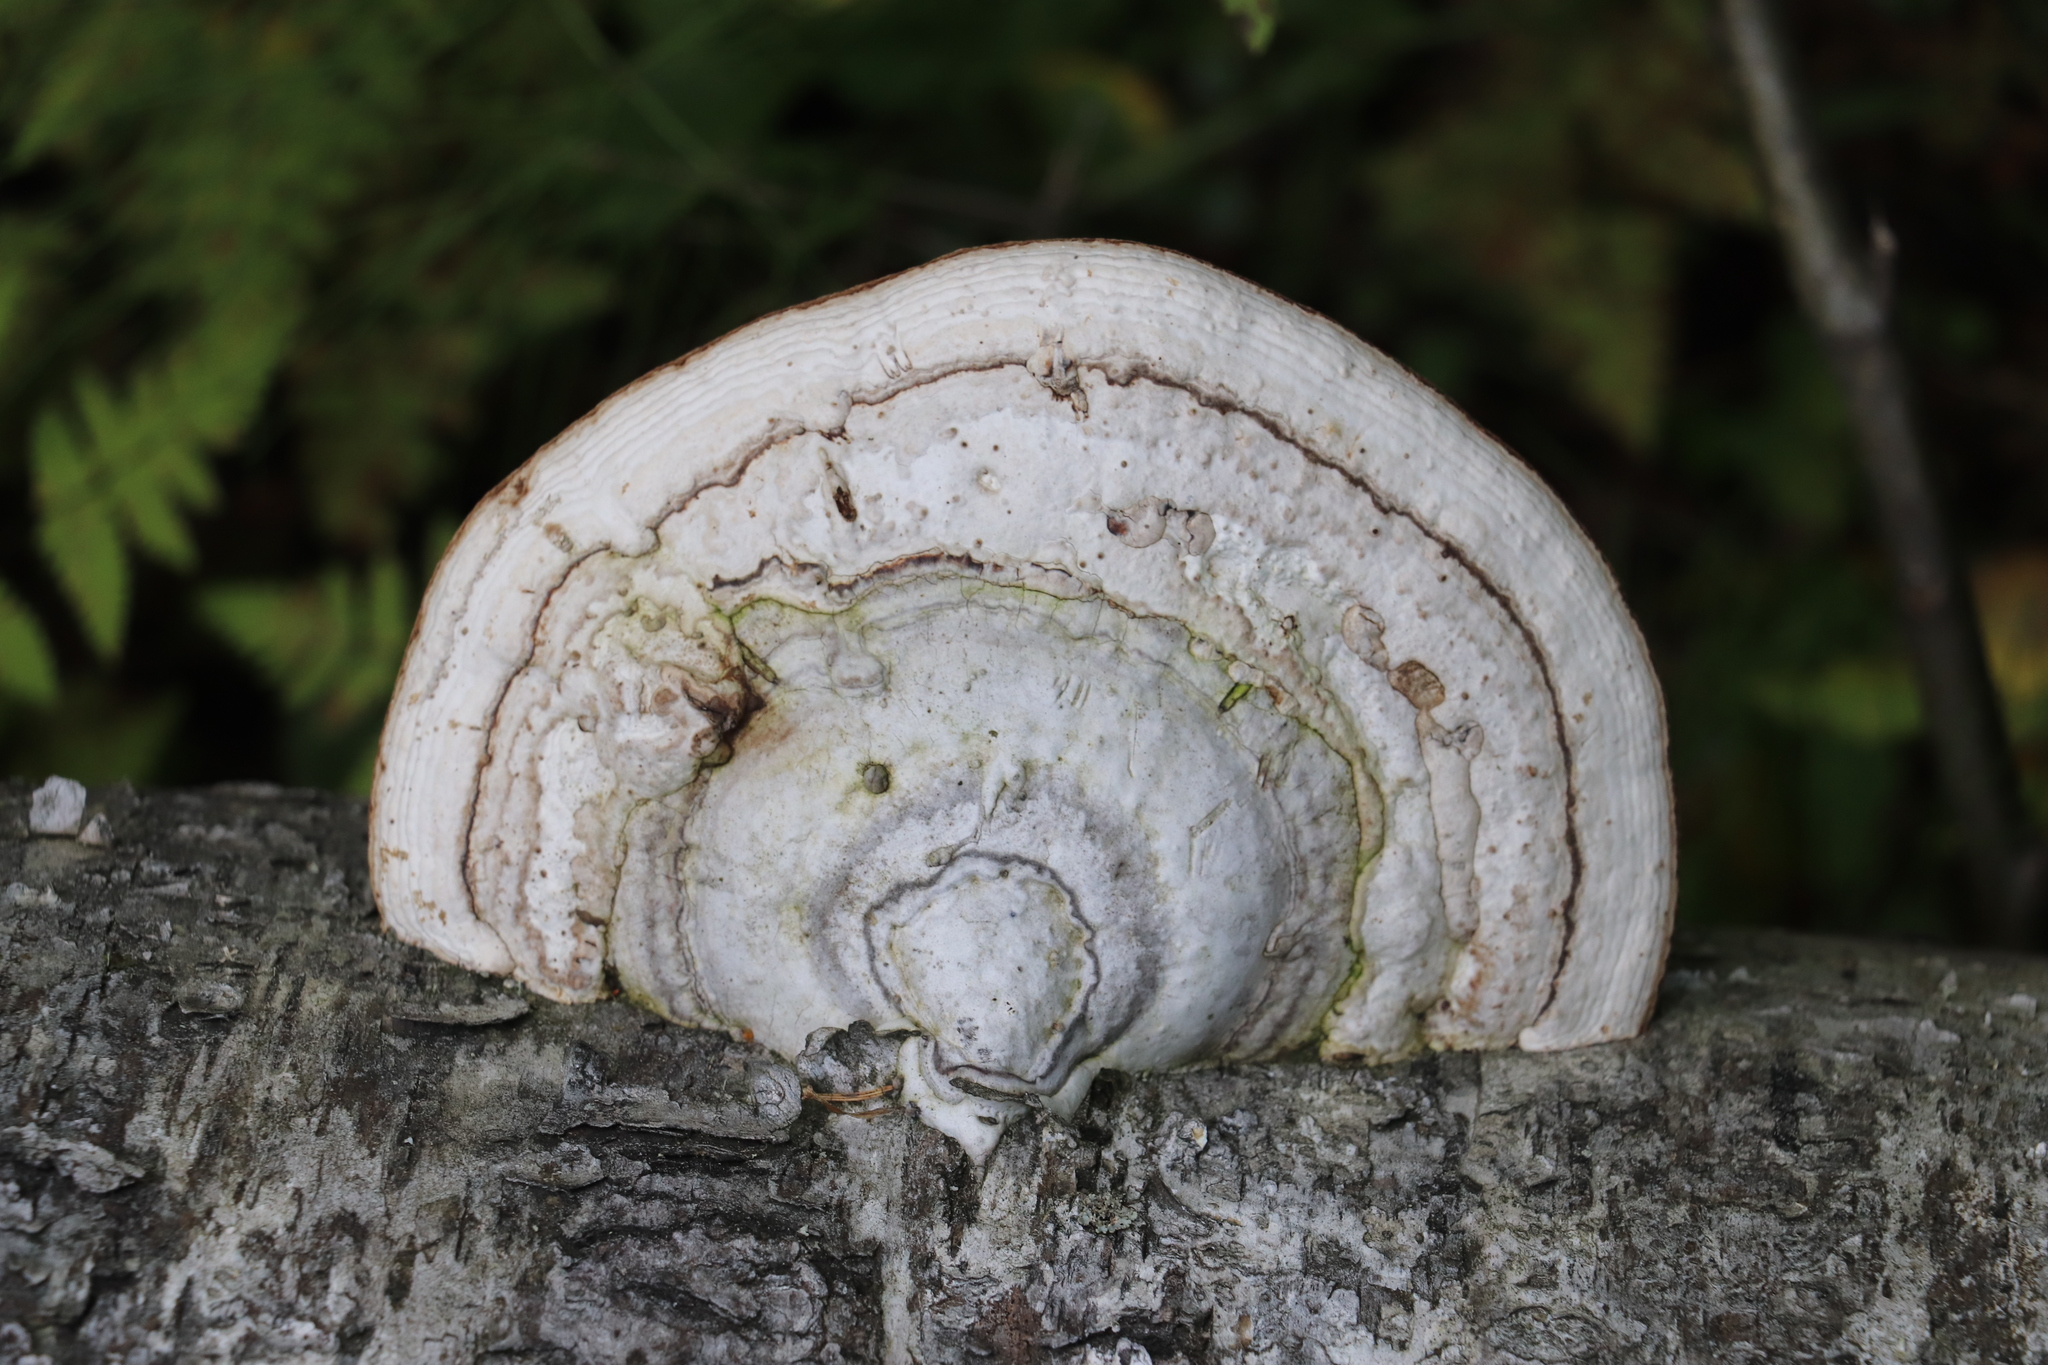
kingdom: Fungi
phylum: Basidiomycota
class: Agaricomycetes
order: Polyporales
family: Polyporaceae
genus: Fomes
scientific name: Fomes fomentarius
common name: Hoof fungus
